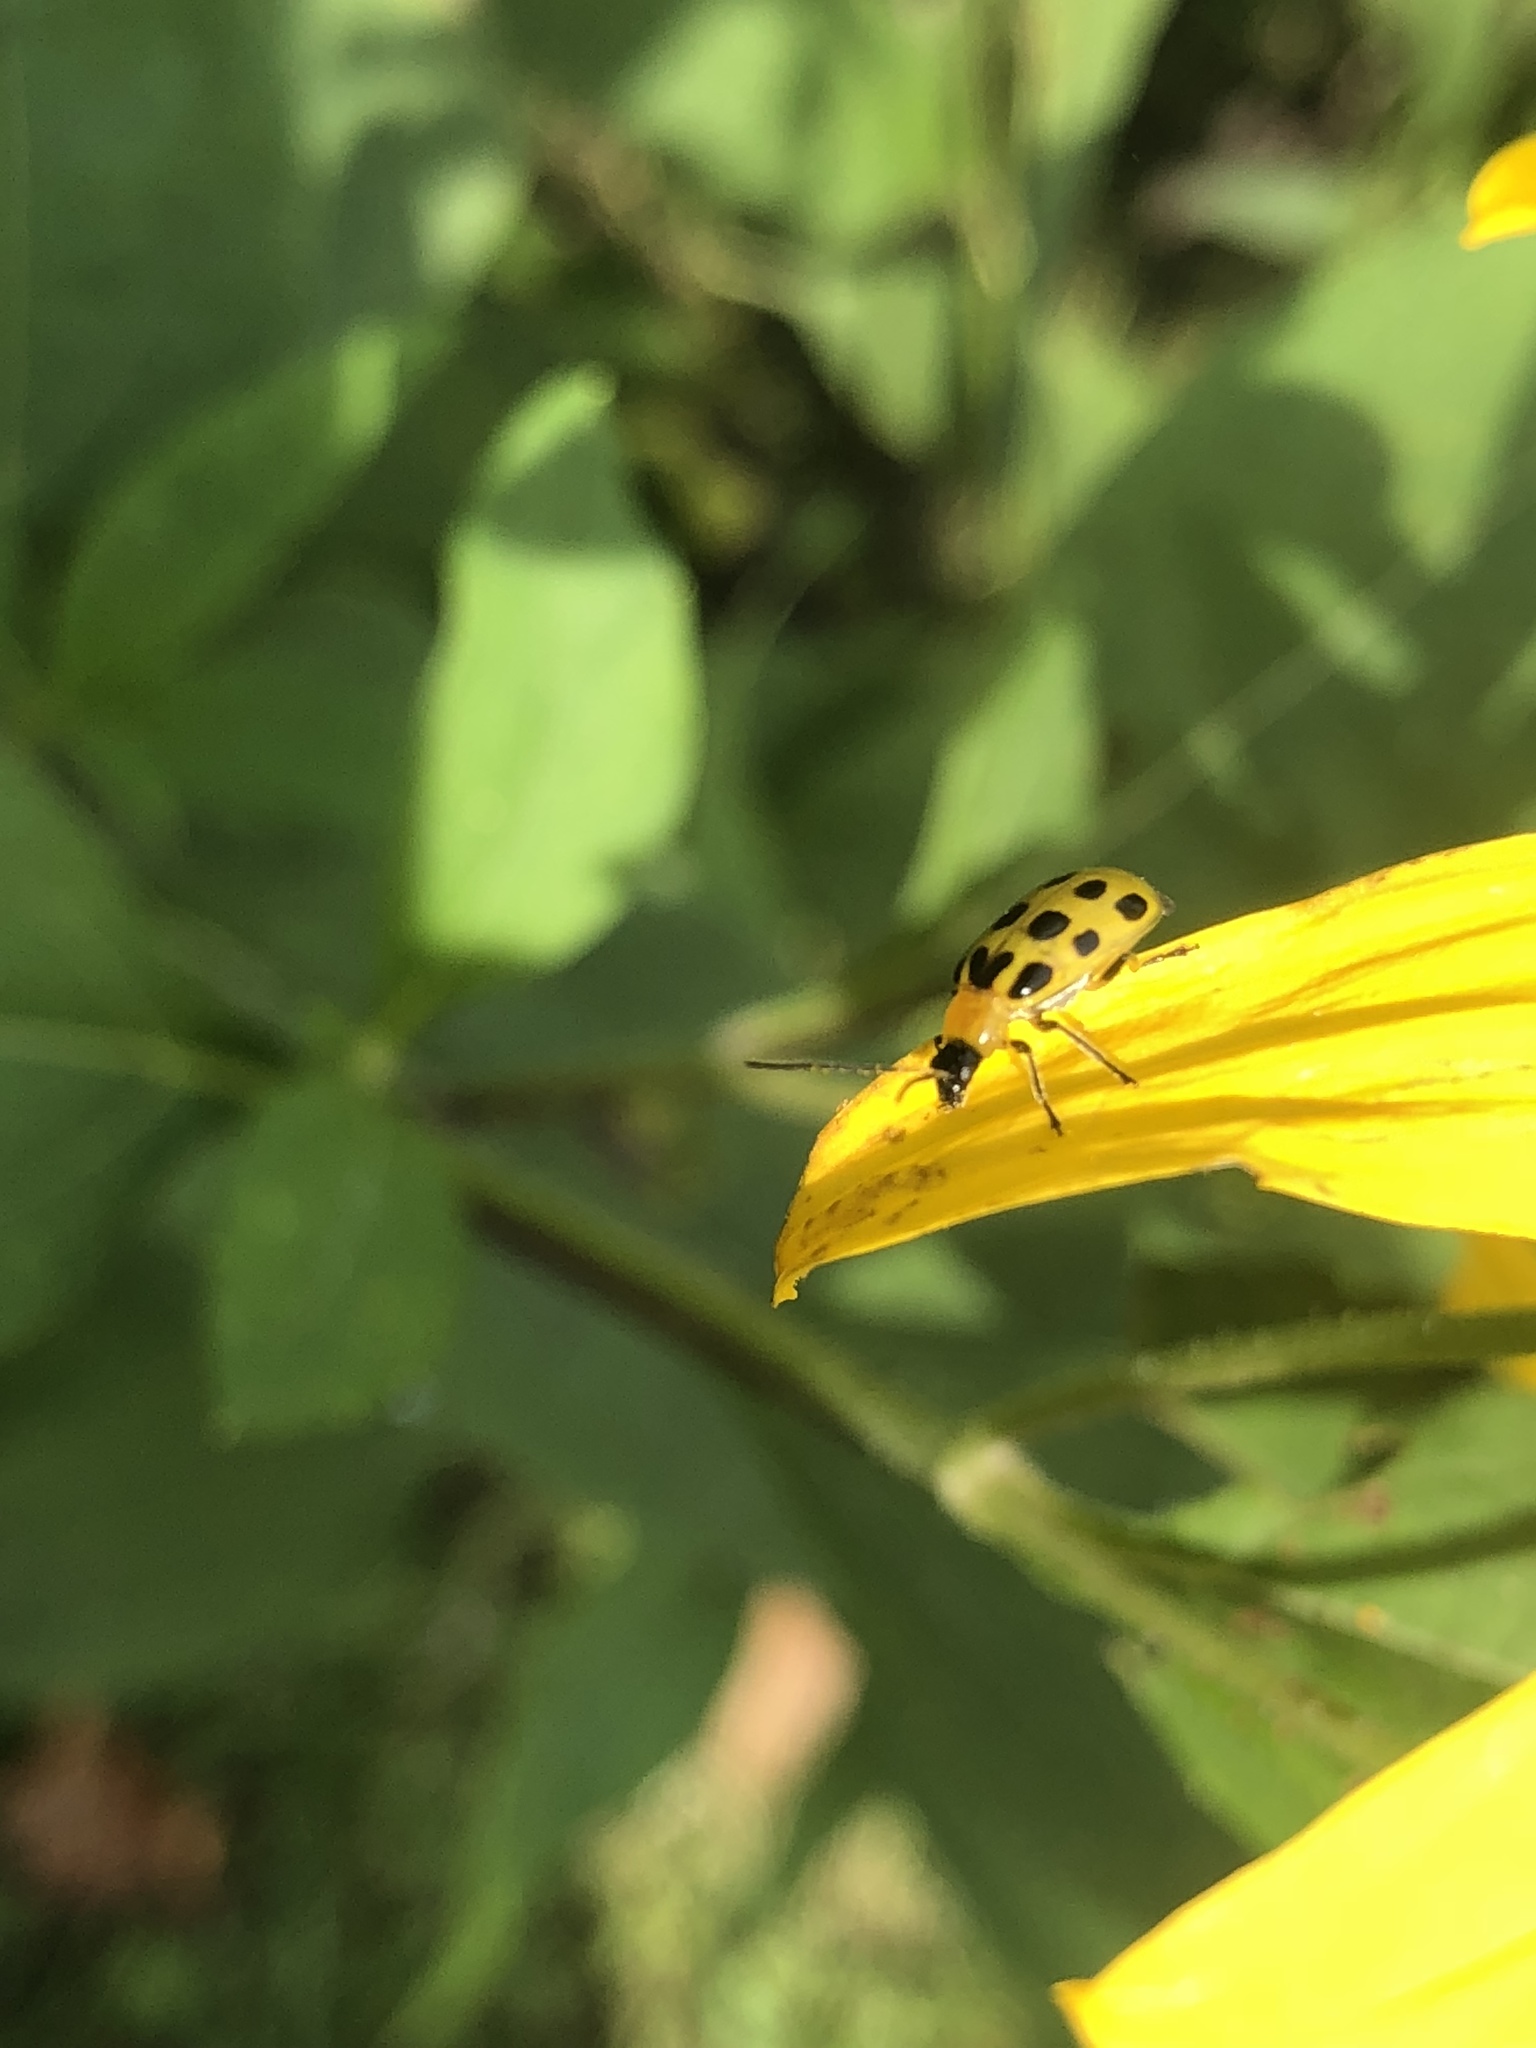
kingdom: Animalia
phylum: Arthropoda
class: Insecta
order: Coleoptera
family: Chrysomelidae
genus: Diabrotica
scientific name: Diabrotica undecimpunctata
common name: Spotted cucumber beetle
